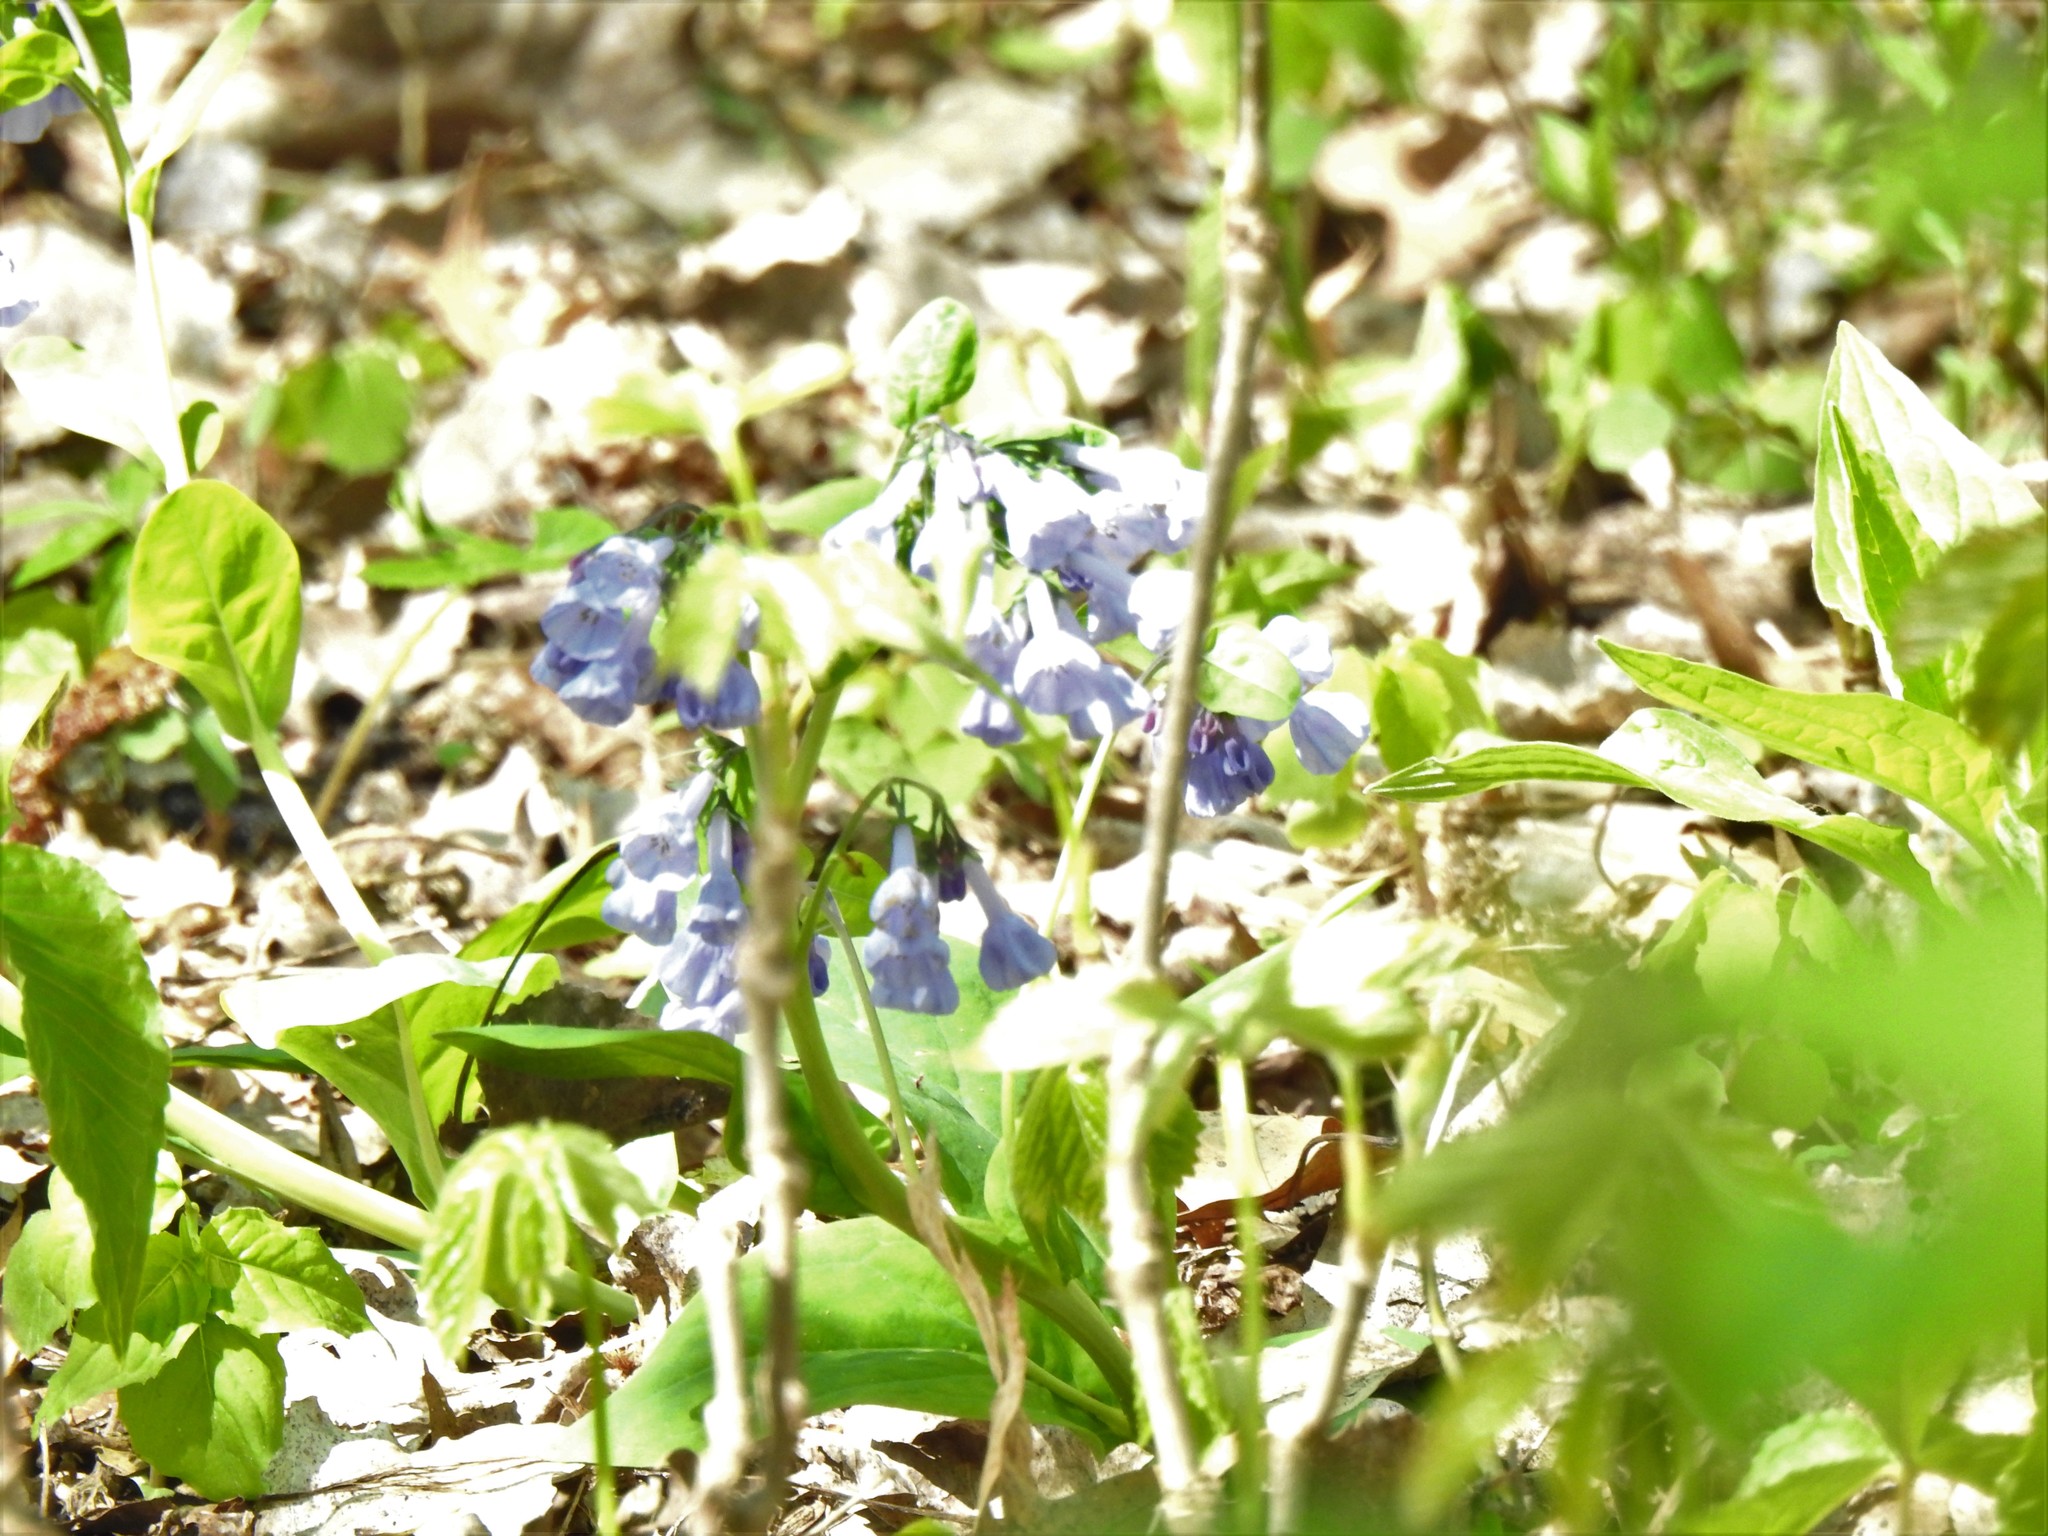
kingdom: Plantae
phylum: Tracheophyta
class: Magnoliopsida
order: Boraginales
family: Boraginaceae
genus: Mertensia
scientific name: Mertensia virginica
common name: Virginia bluebells
